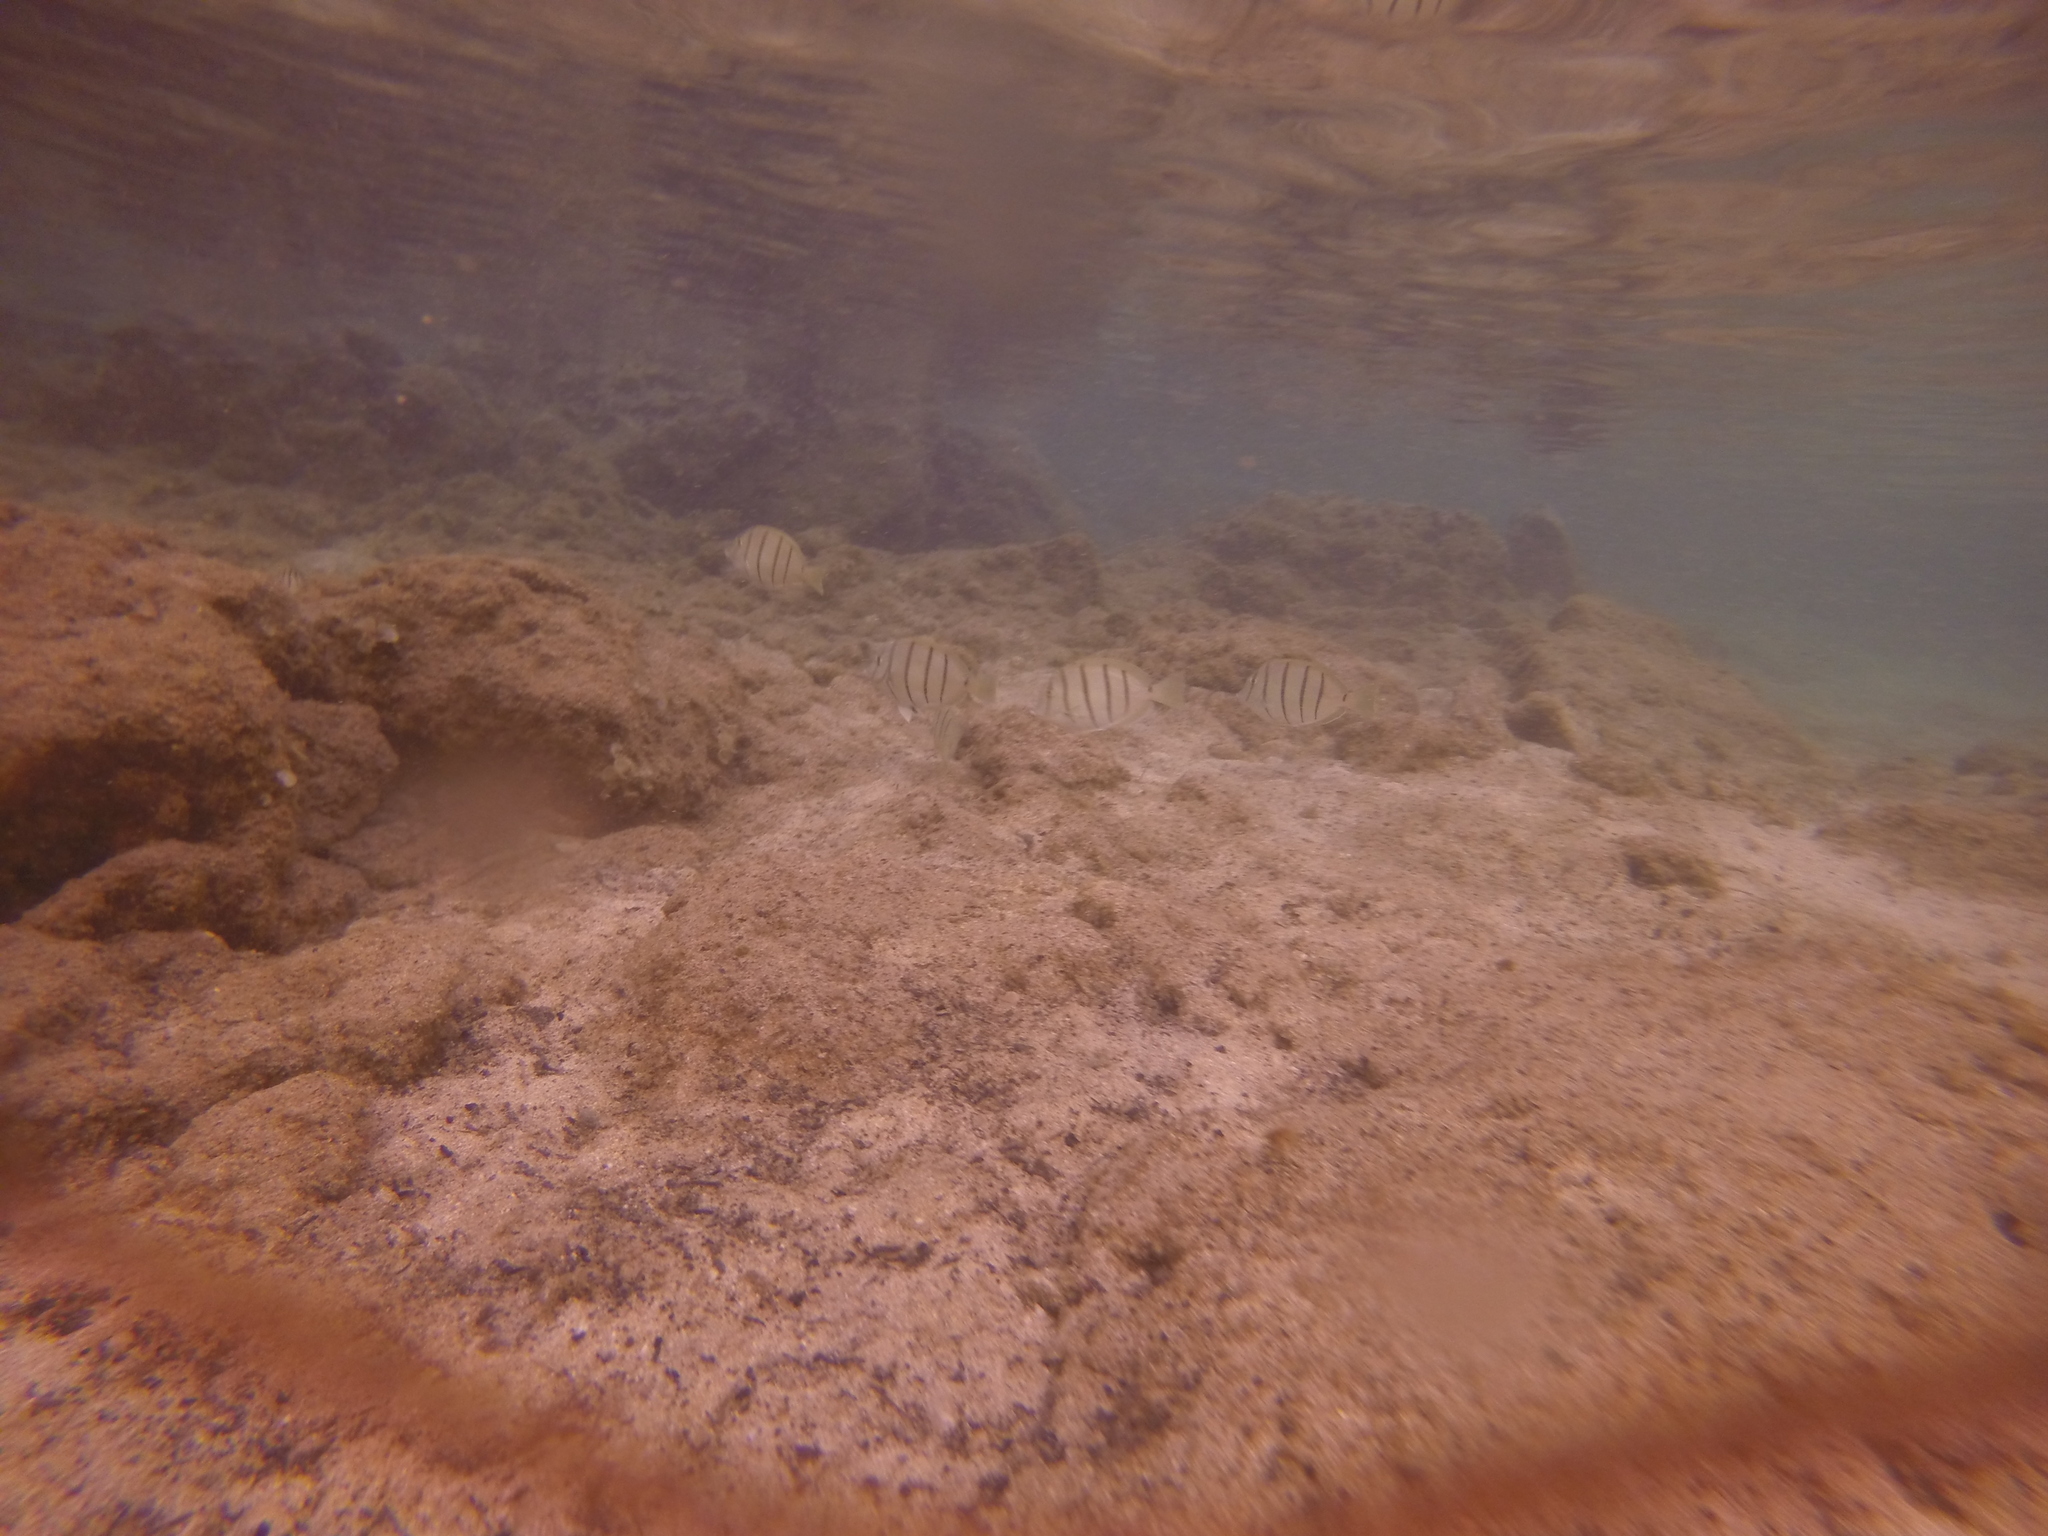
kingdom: Animalia
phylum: Chordata
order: Perciformes
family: Acanthuridae
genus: Acanthurus
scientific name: Acanthurus triostegus
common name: Convict surgeonfish
